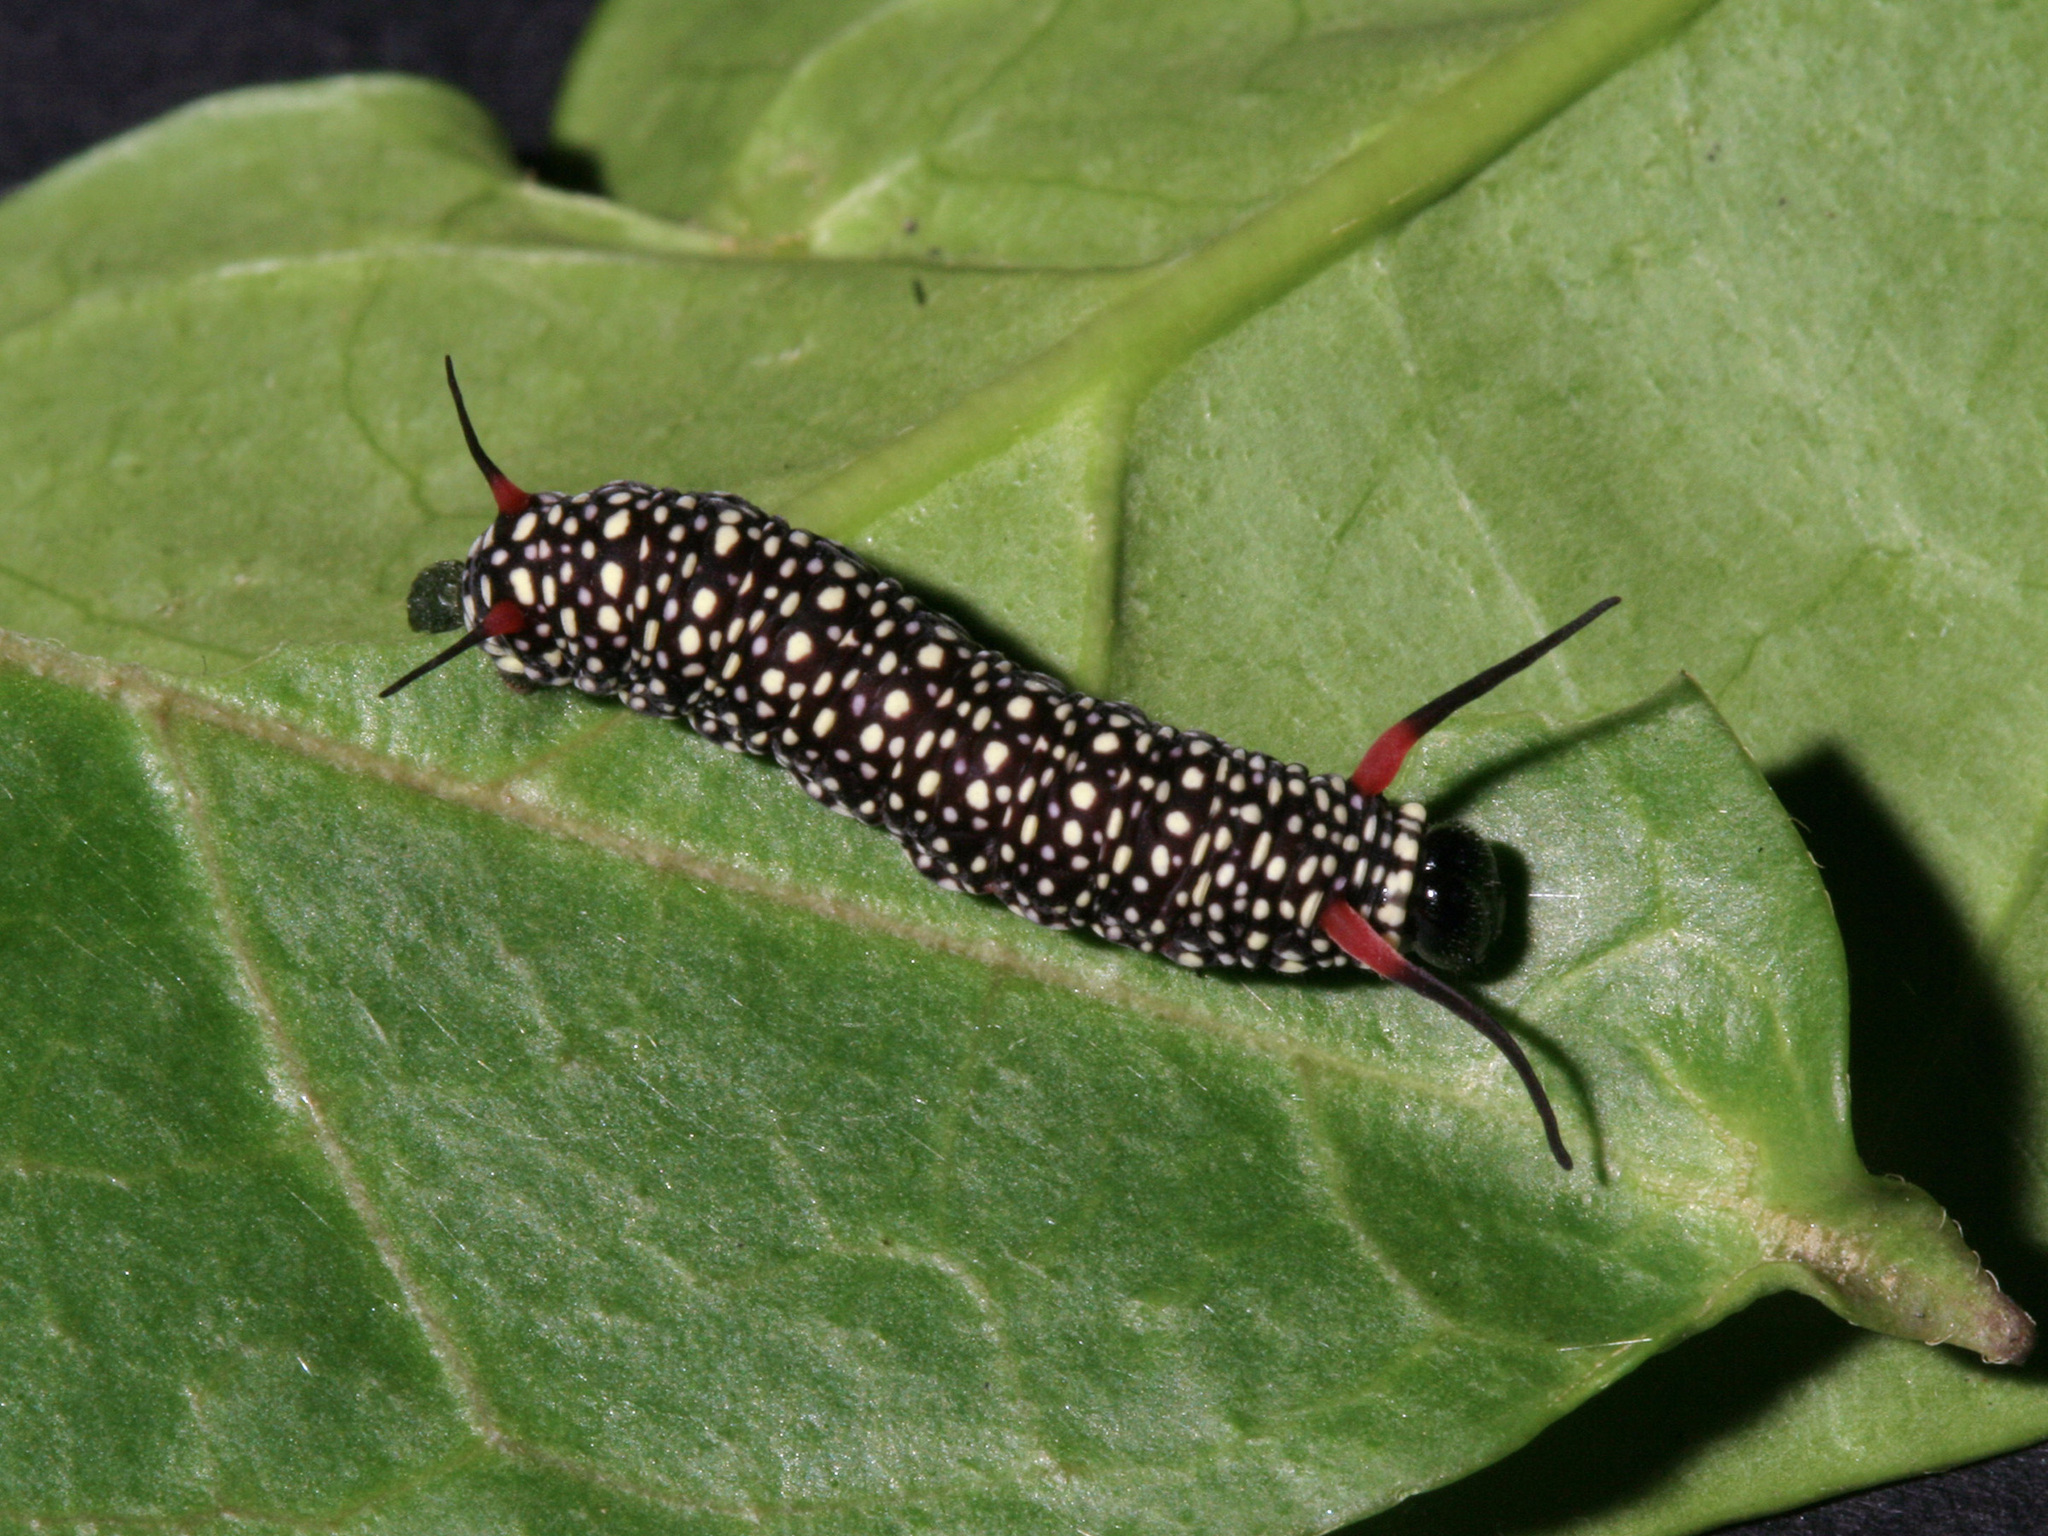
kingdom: Animalia
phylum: Arthropoda
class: Insecta
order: Lepidoptera
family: Nymphalidae
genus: Ideopsis
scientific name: Ideopsis vulgaris
